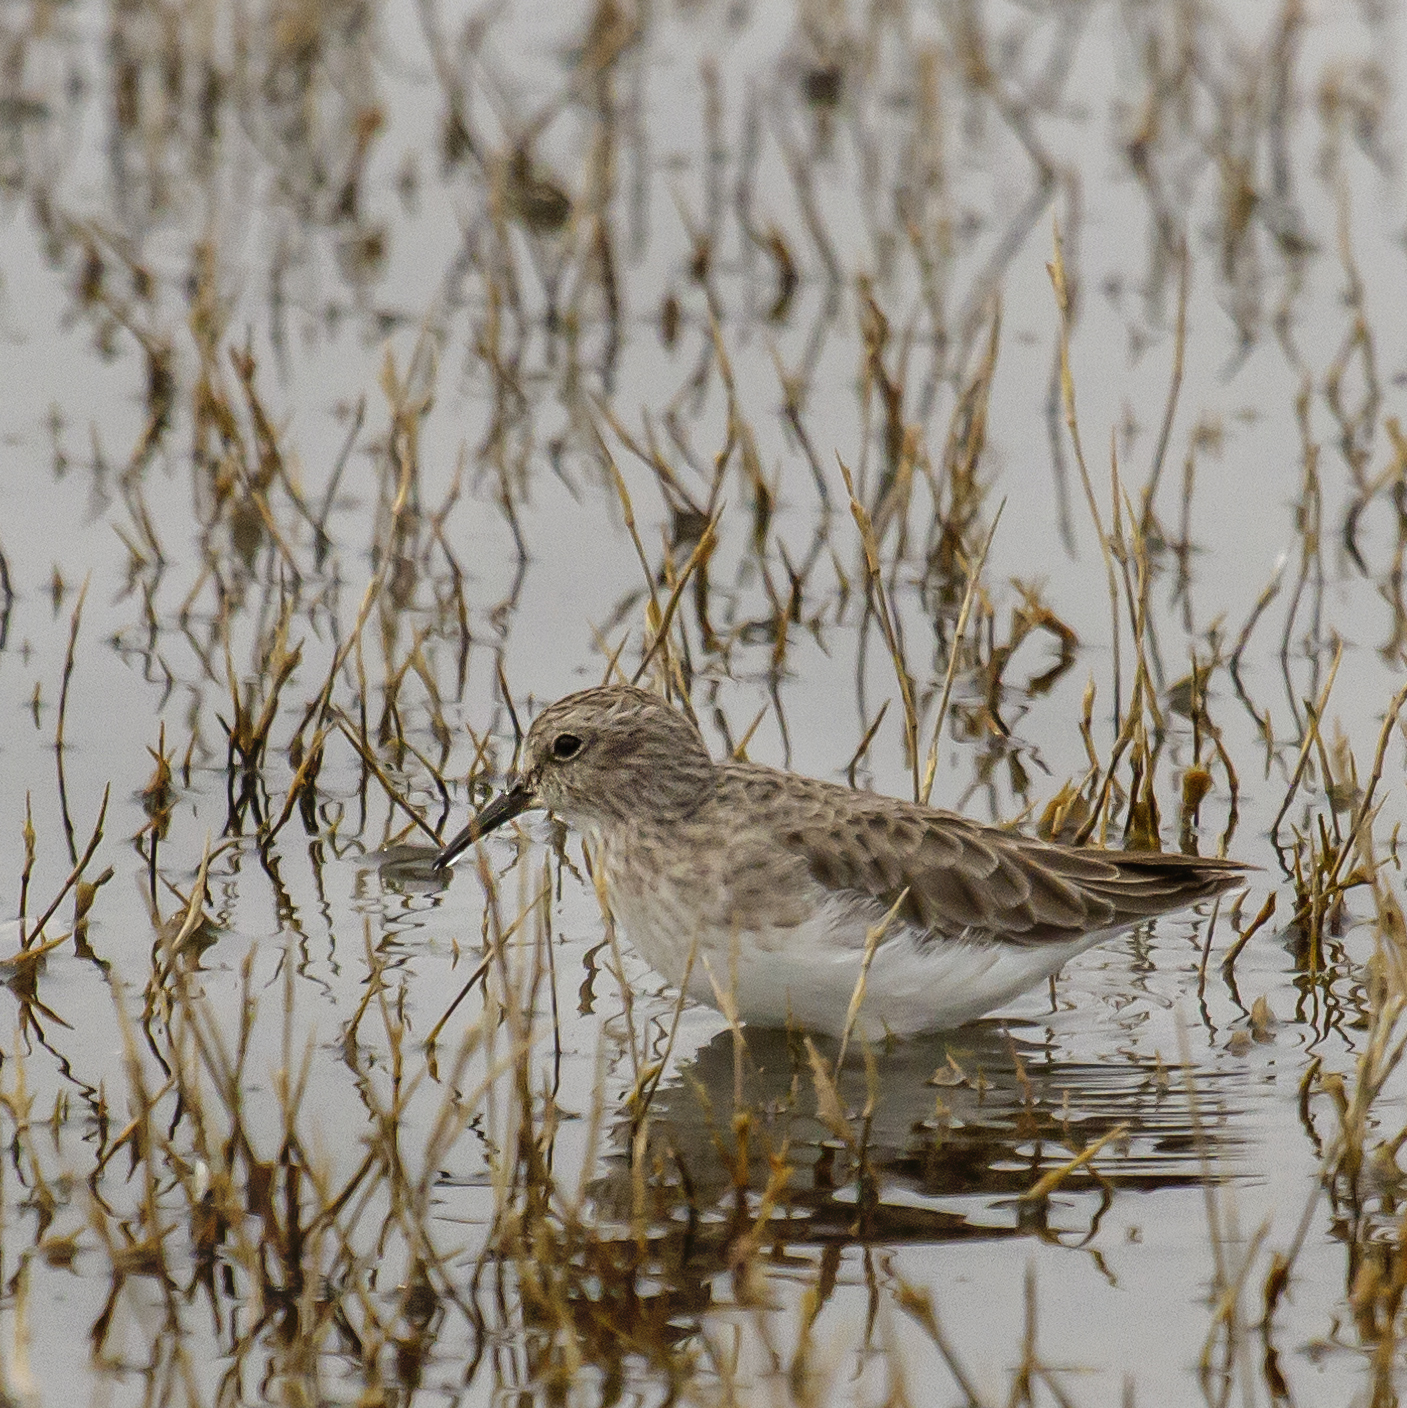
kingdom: Animalia
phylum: Chordata
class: Aves
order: Charadriiformes
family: Scolopacidae
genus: Calidris
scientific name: Calidris minutilla
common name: Least sandpiper
